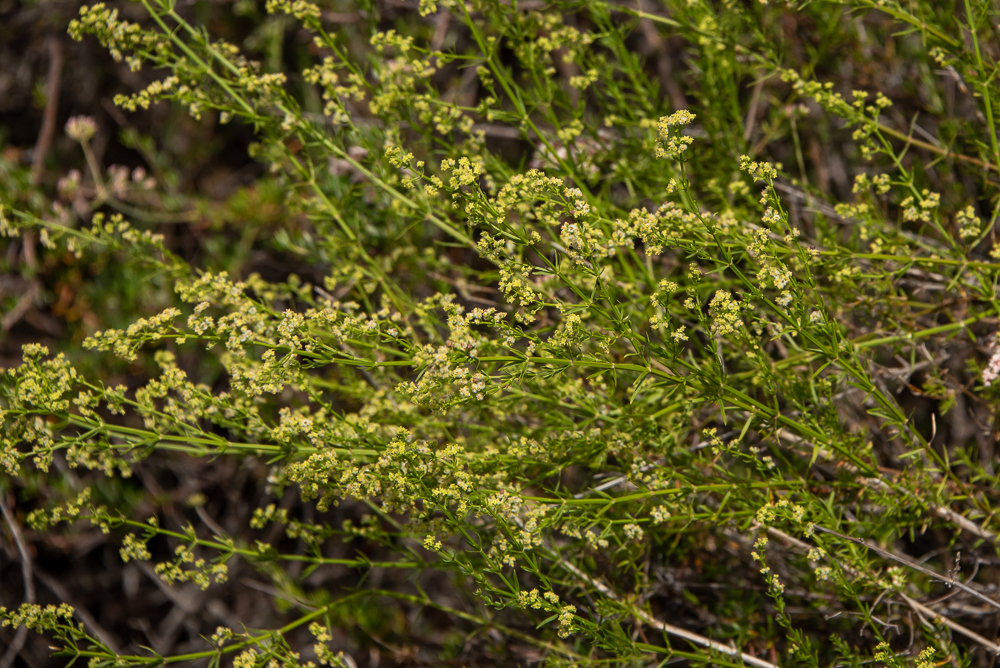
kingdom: Plantae
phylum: Tracheophyta
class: Magnoliopsida
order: Gentianales
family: Rubiaceae
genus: Galium
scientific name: Galium angustifolium
